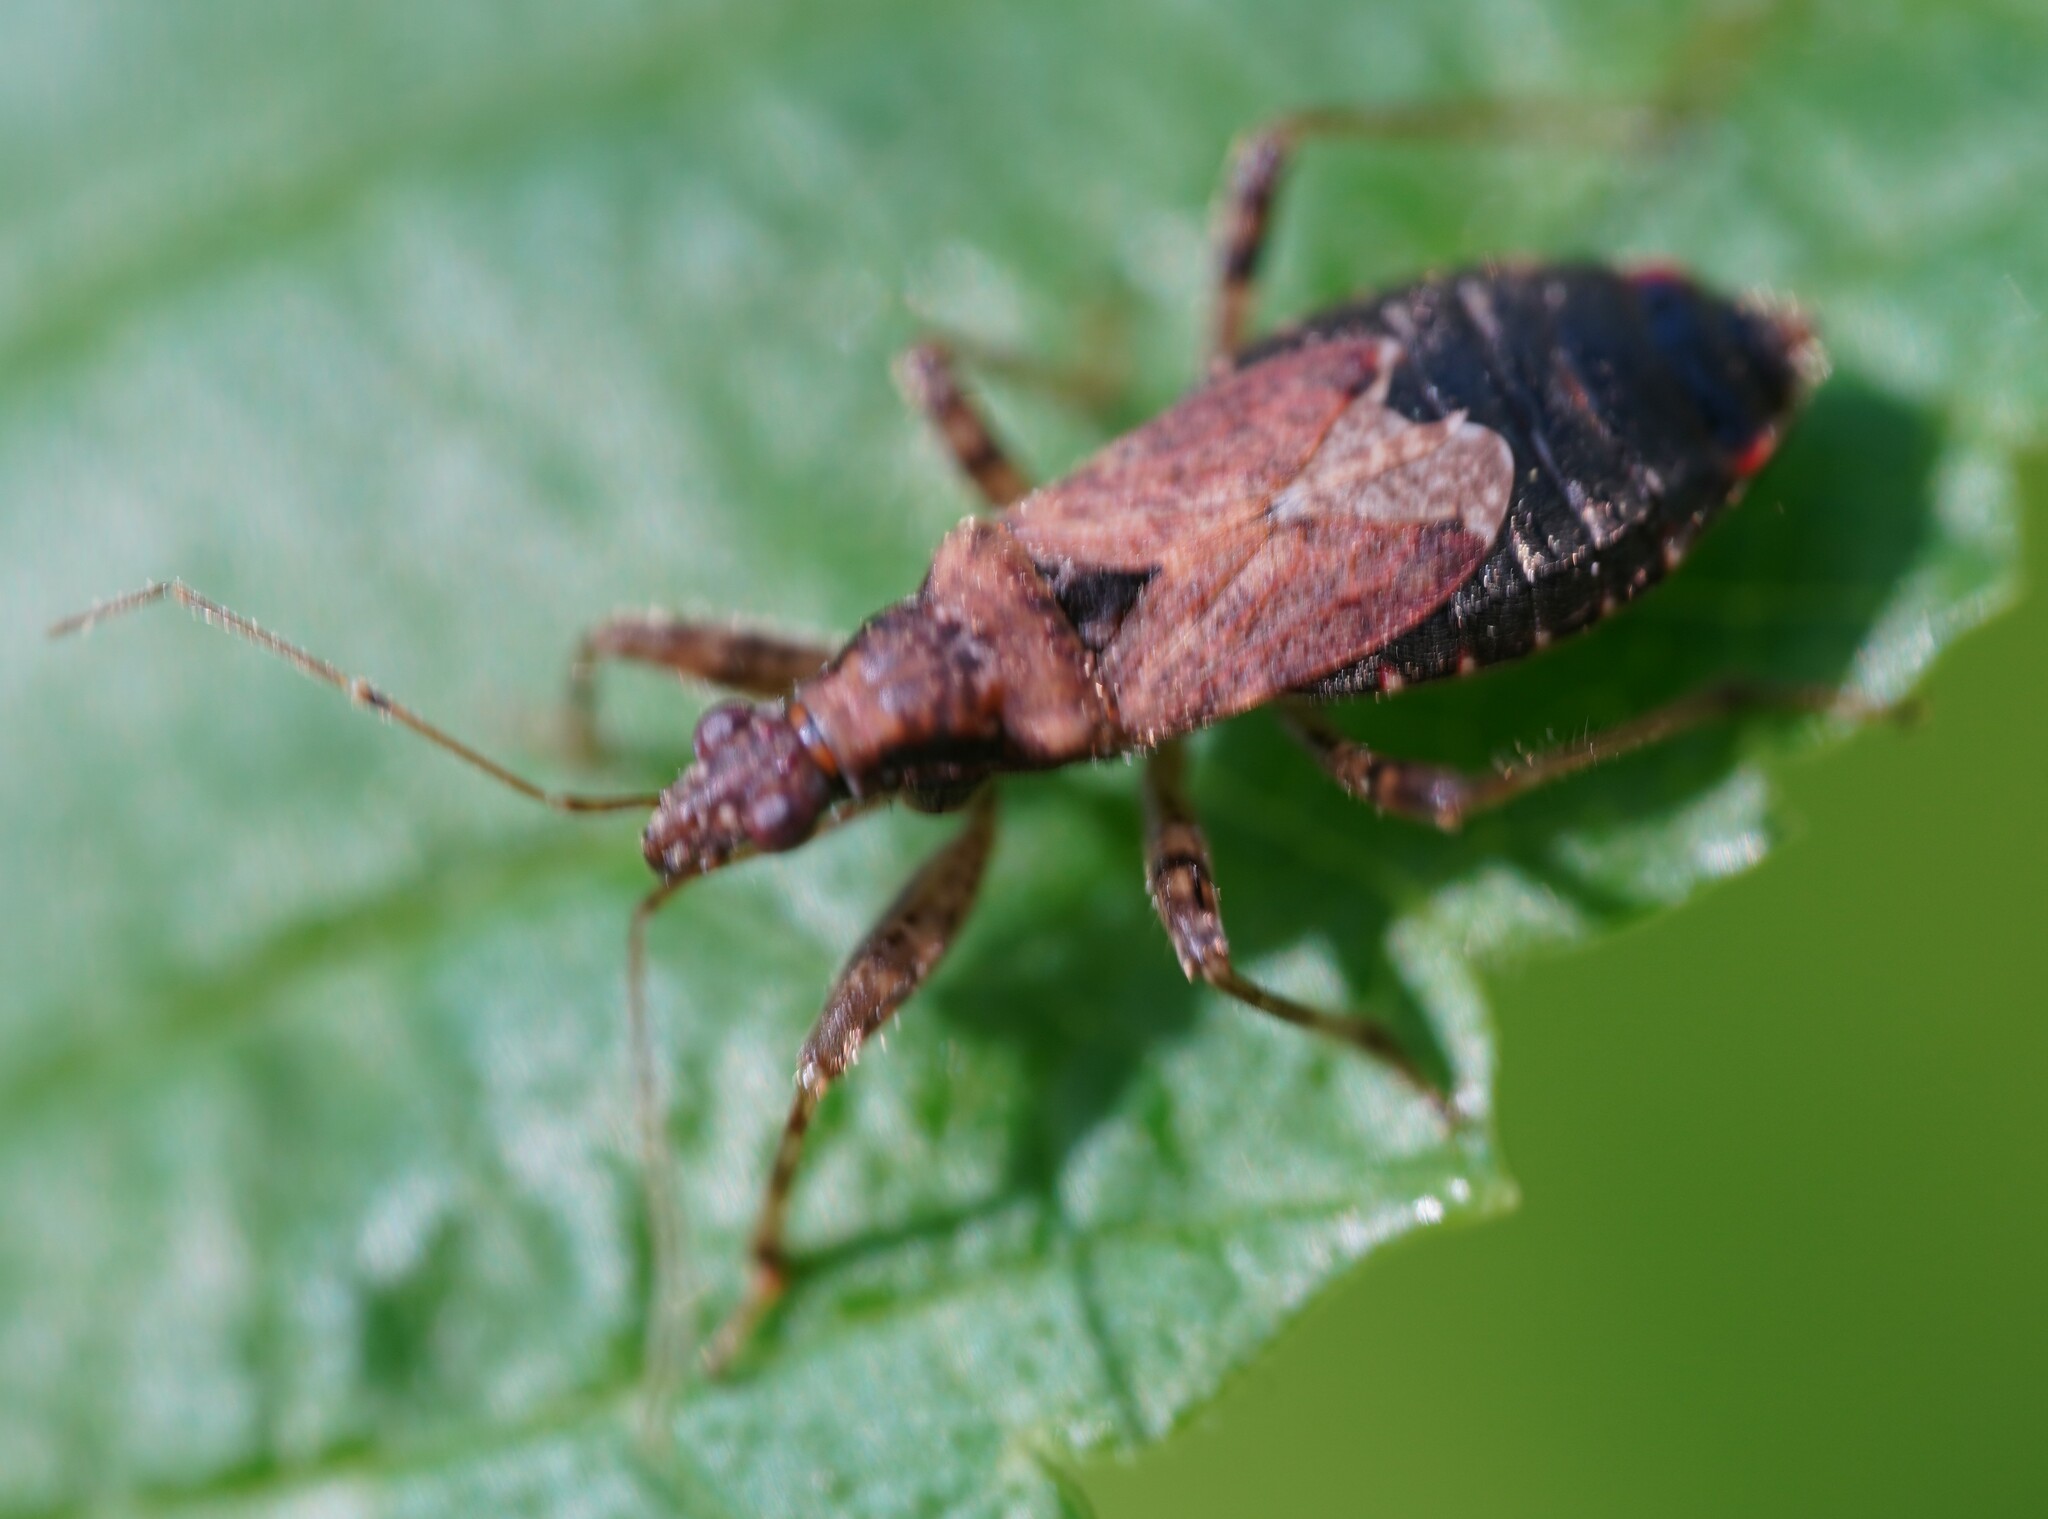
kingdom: Animalia
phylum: Arthropoda
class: Insecta
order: Hemiptera
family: Nabidae
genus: Himacerus
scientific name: Himacerus mirmicoides
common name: Ant damsel bug
